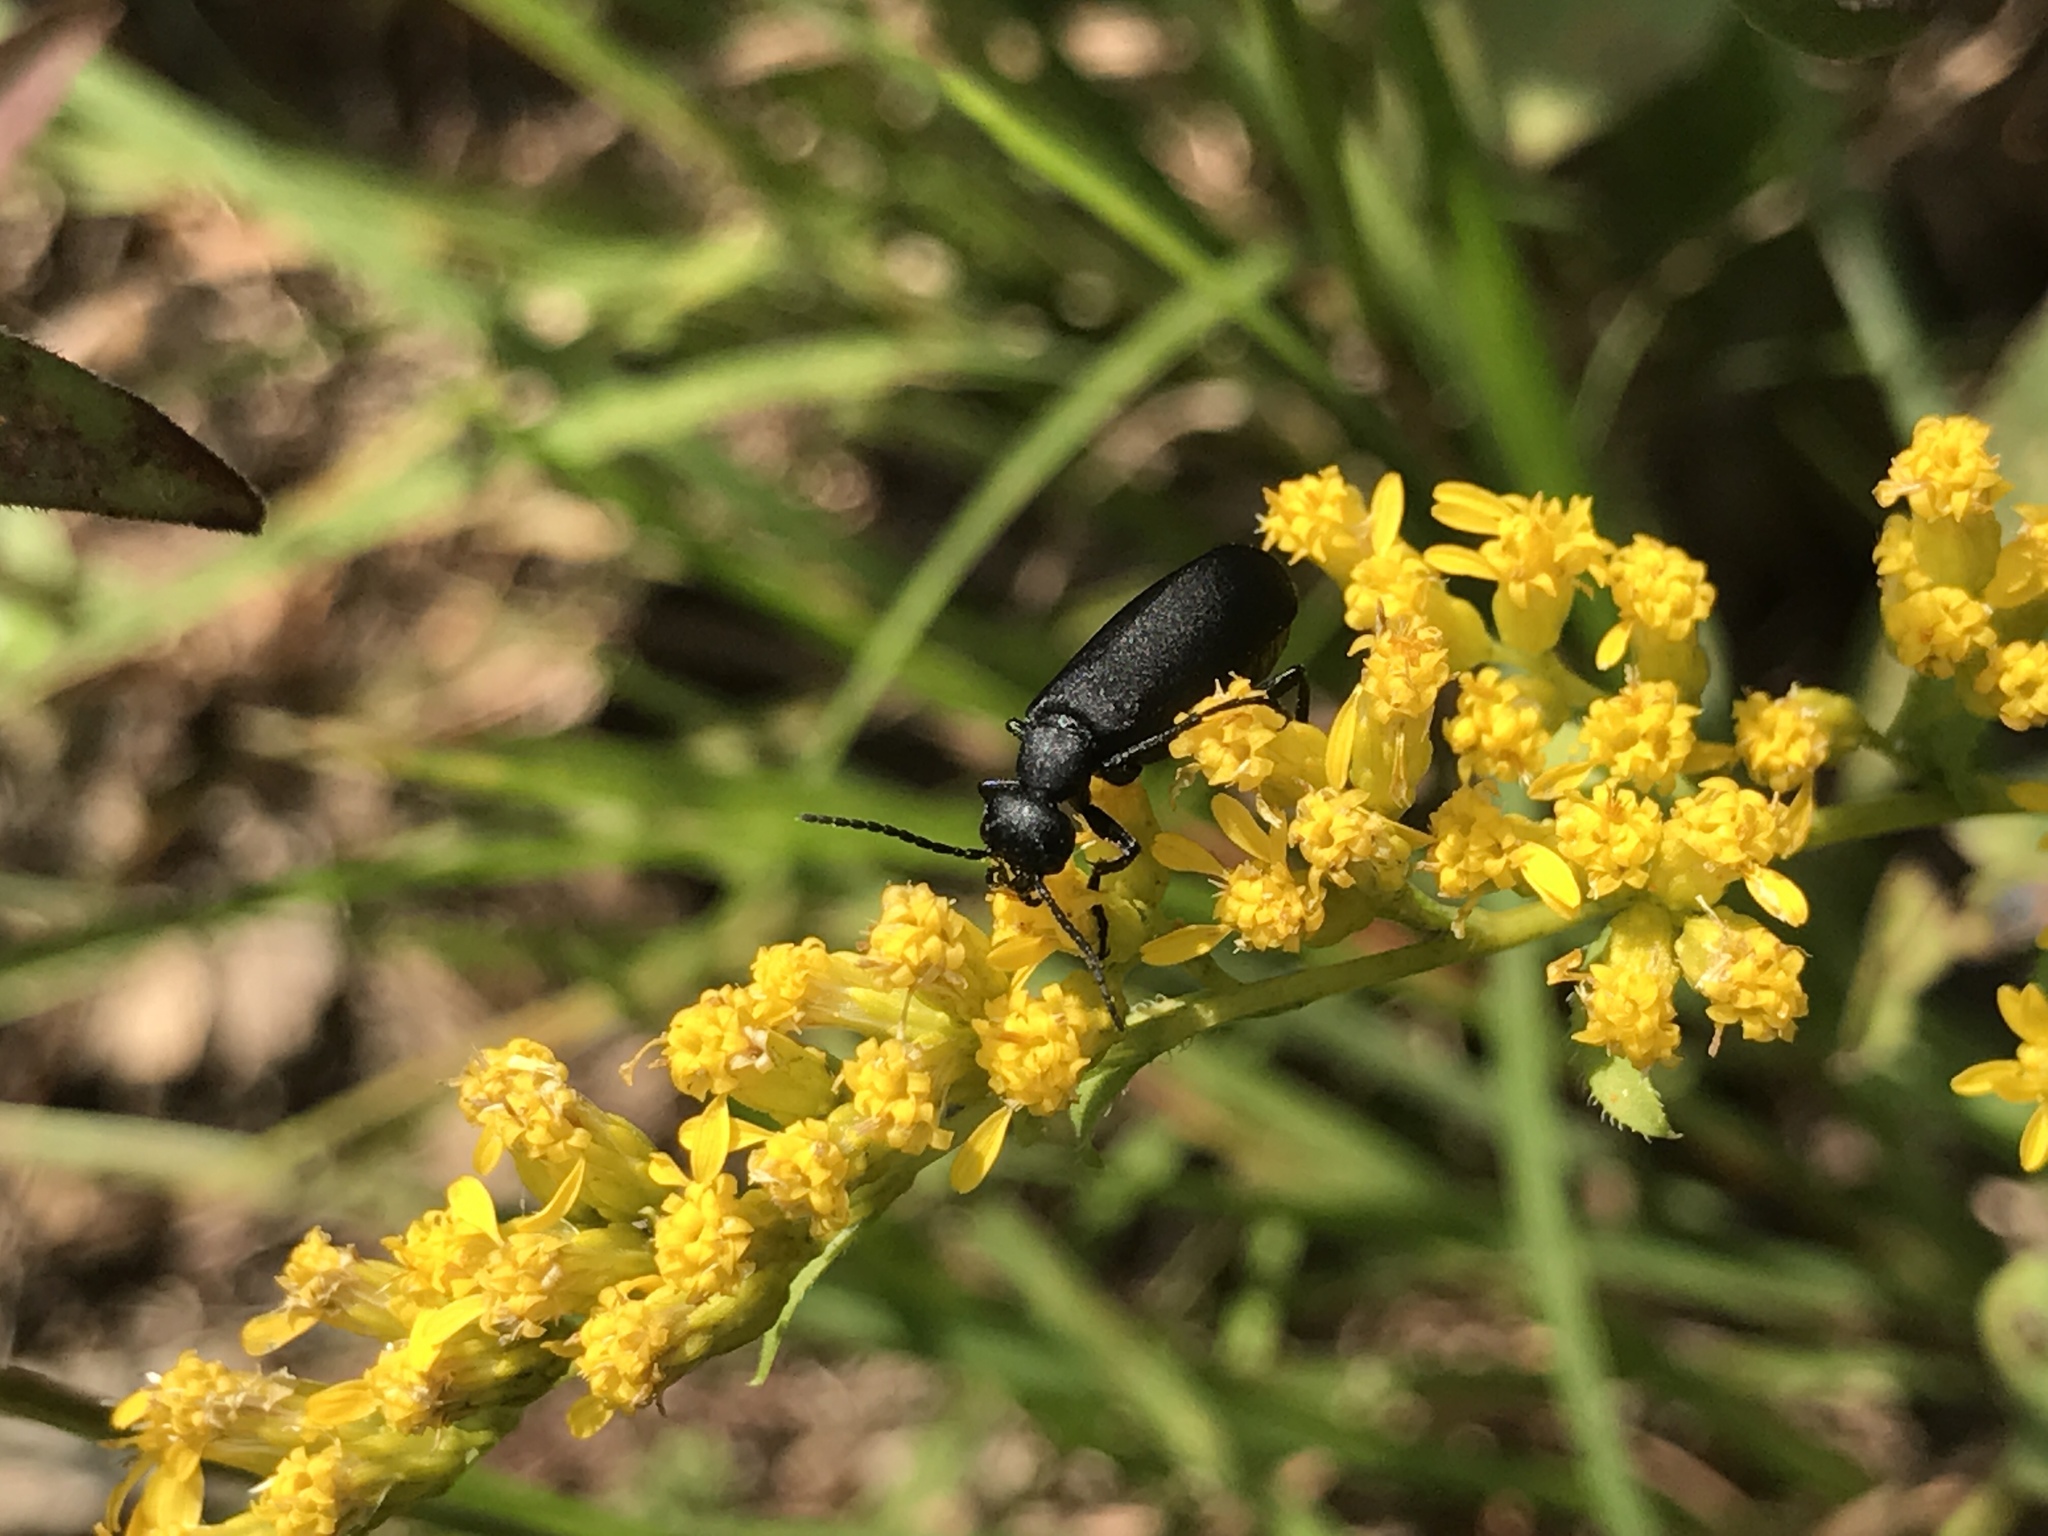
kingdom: Animalia
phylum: Arthropoda
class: Insecta
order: Coleoptera
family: Meloidae
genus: Epicauta
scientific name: Epicauta pensylvanica
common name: Black blister beetle
